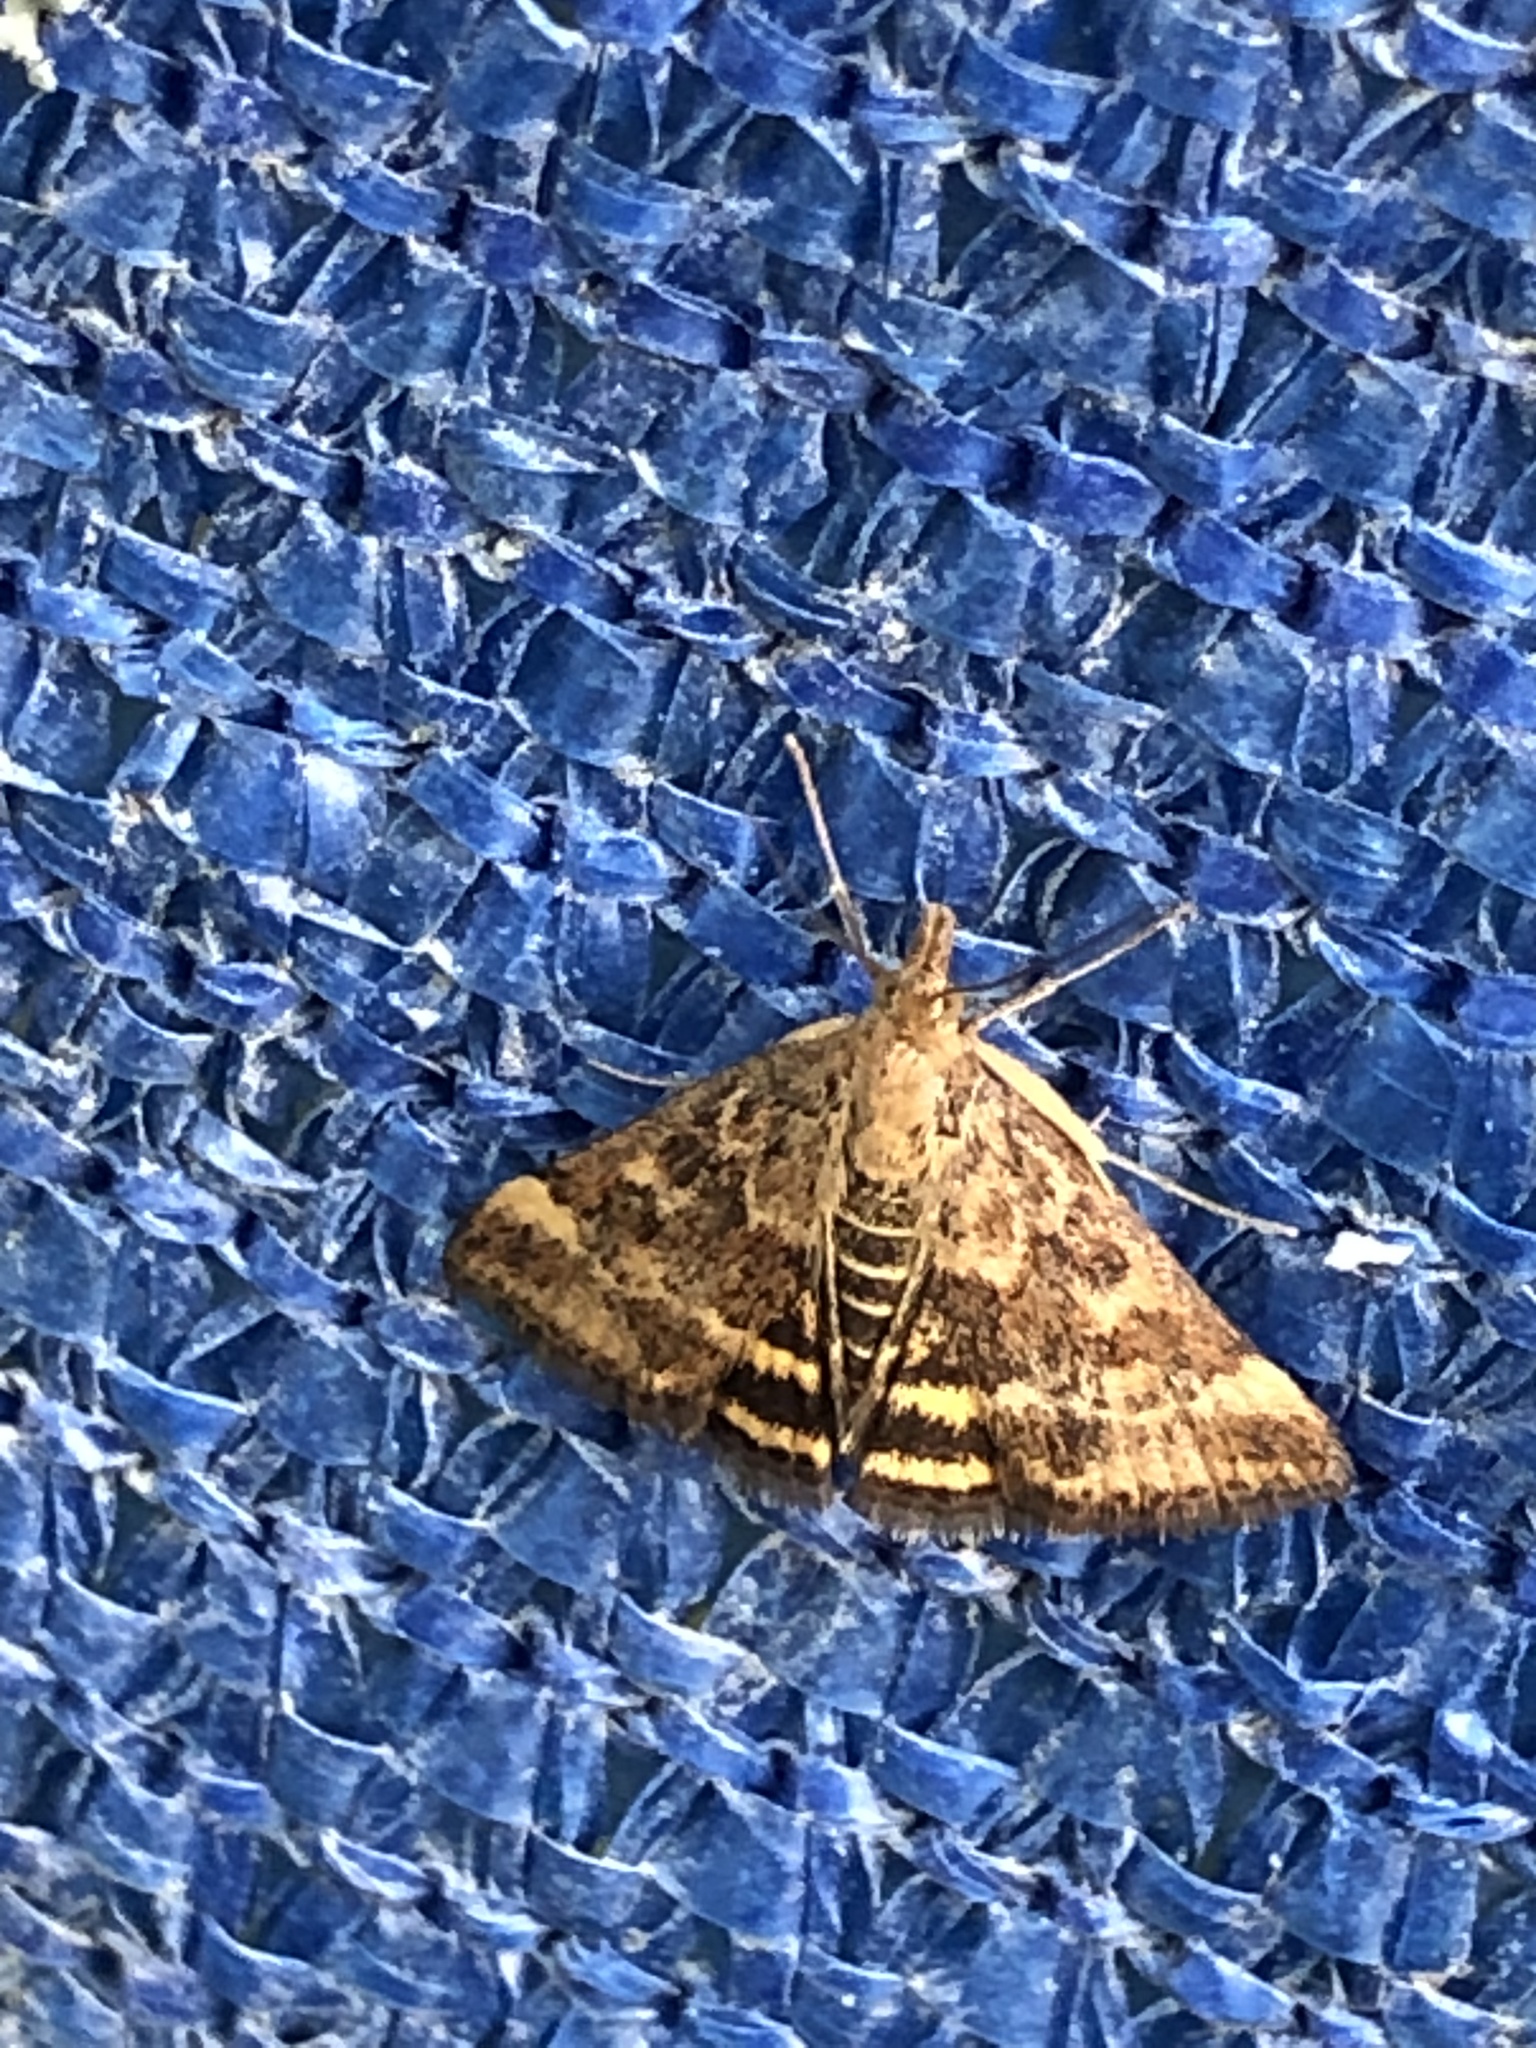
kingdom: Animalia
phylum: Arthropoda
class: Insecta
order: Lepidoptera
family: Crambidae
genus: Pyrausta
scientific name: Pyrausta despicata
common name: Straw-barred pearl
